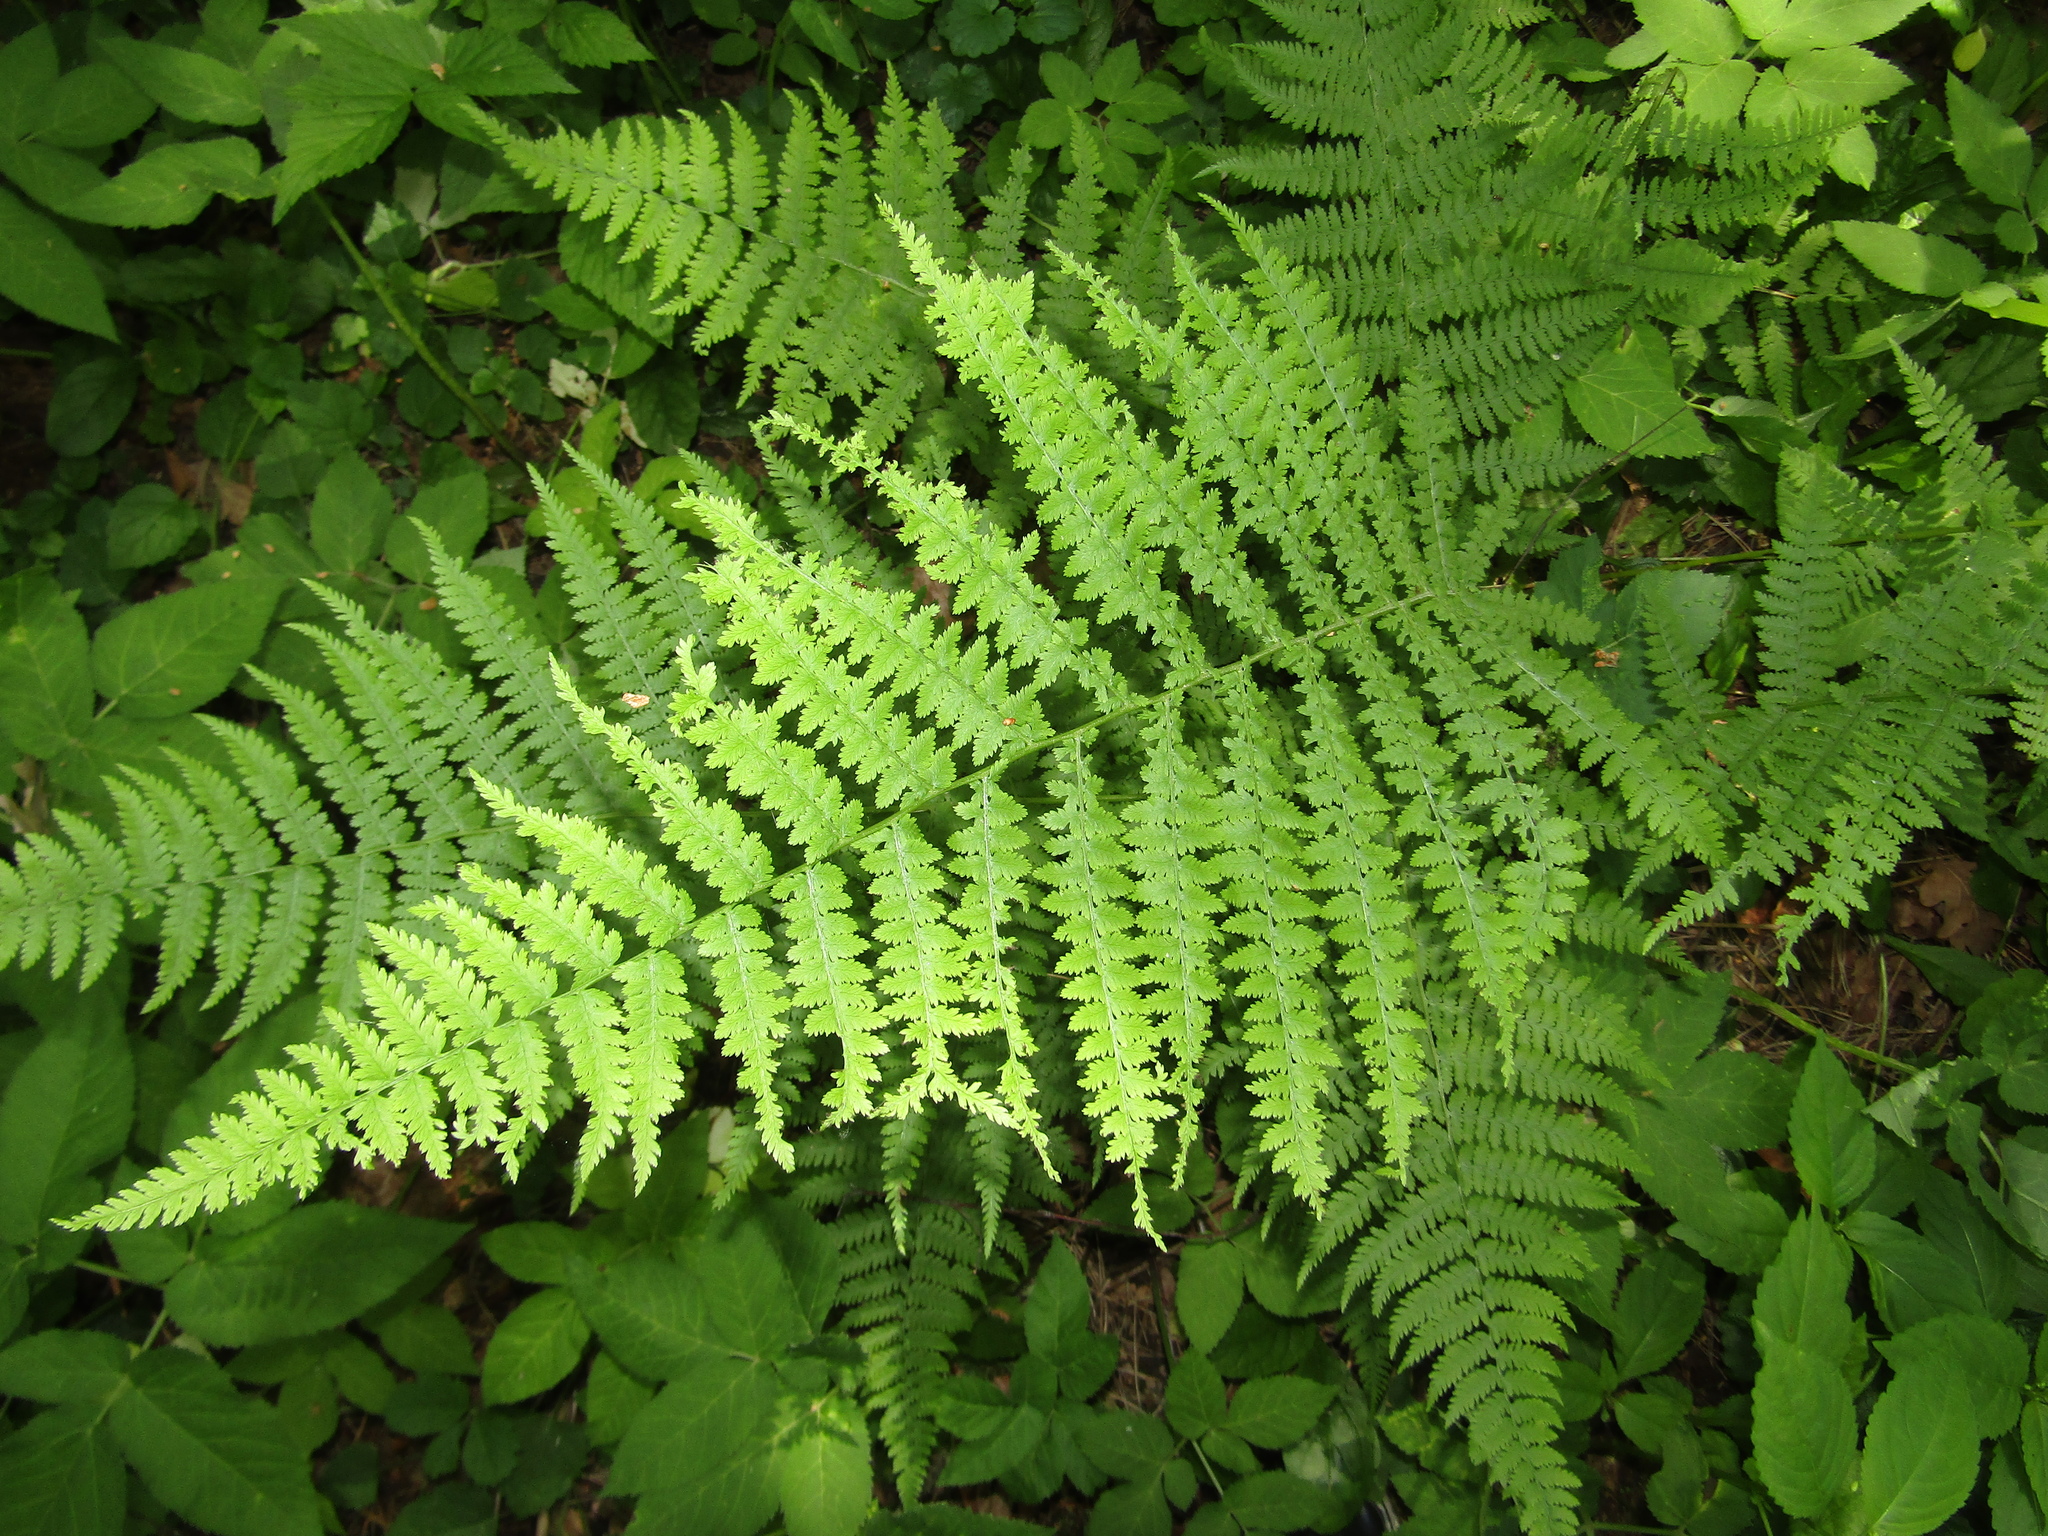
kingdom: Plantae
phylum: Tracheophyta
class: Polypodiopsida
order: Polypodiales
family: Athyriaceae
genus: Athyrium
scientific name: Athyrium filix-femina
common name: Lady fern
